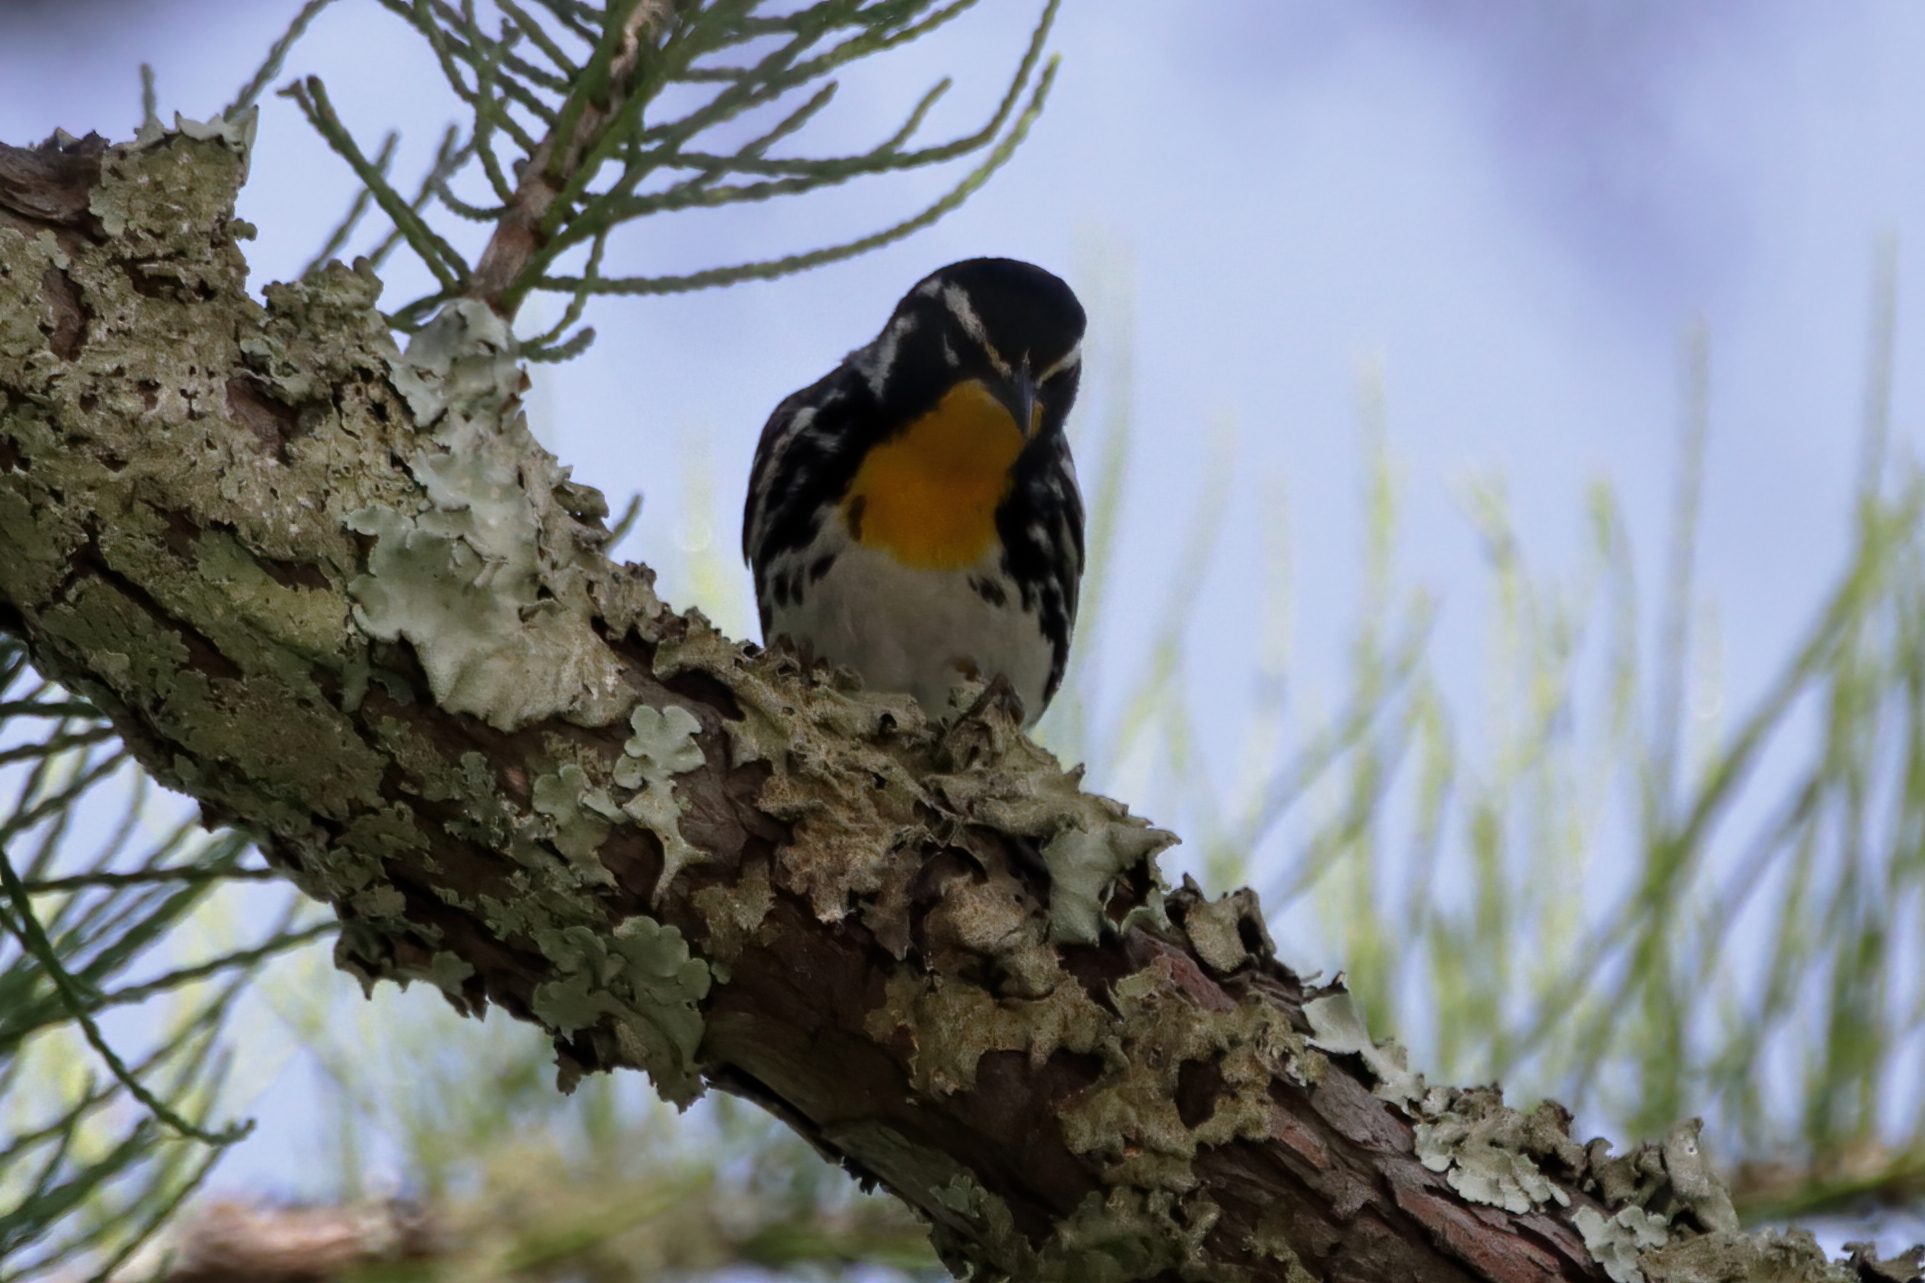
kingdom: Animalia
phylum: Chordata
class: Aves
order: Passeriformes
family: Parulidae
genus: Setophaga
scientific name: Setophaga dominica
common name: Yellow-throated warbler
